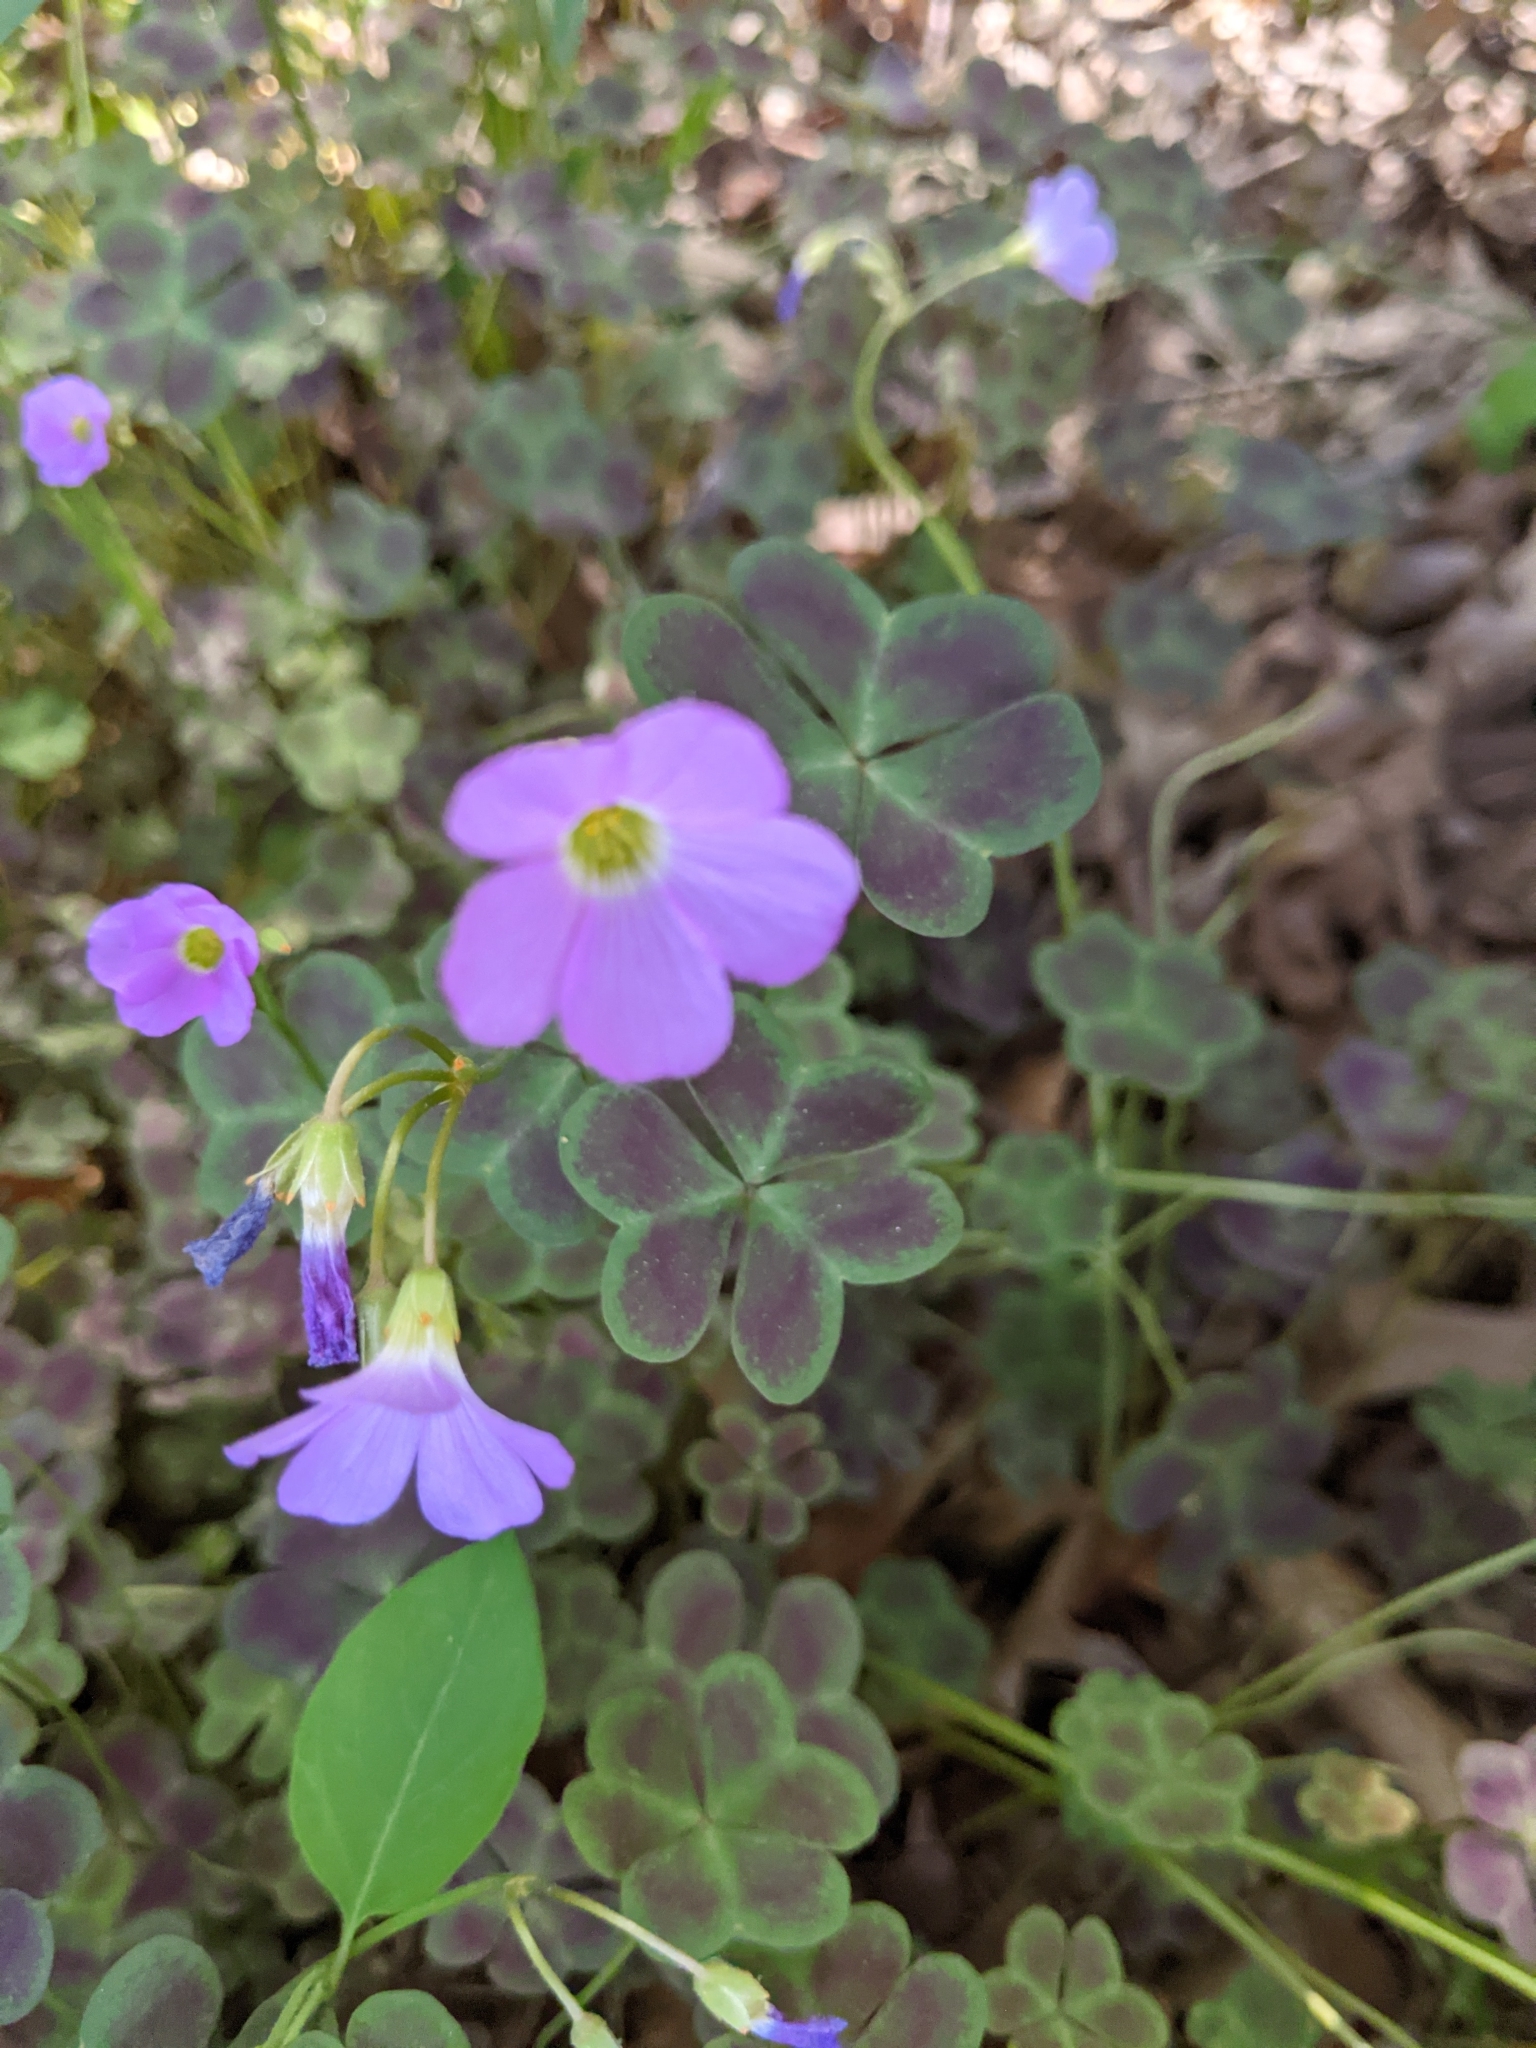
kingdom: Plantae
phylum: Tracheophyta
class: Magnoliopsida
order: Oxalidales
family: Oxalidaceae
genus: Oxalis
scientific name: Oxalis violacea
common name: Violet wood-sorrel
